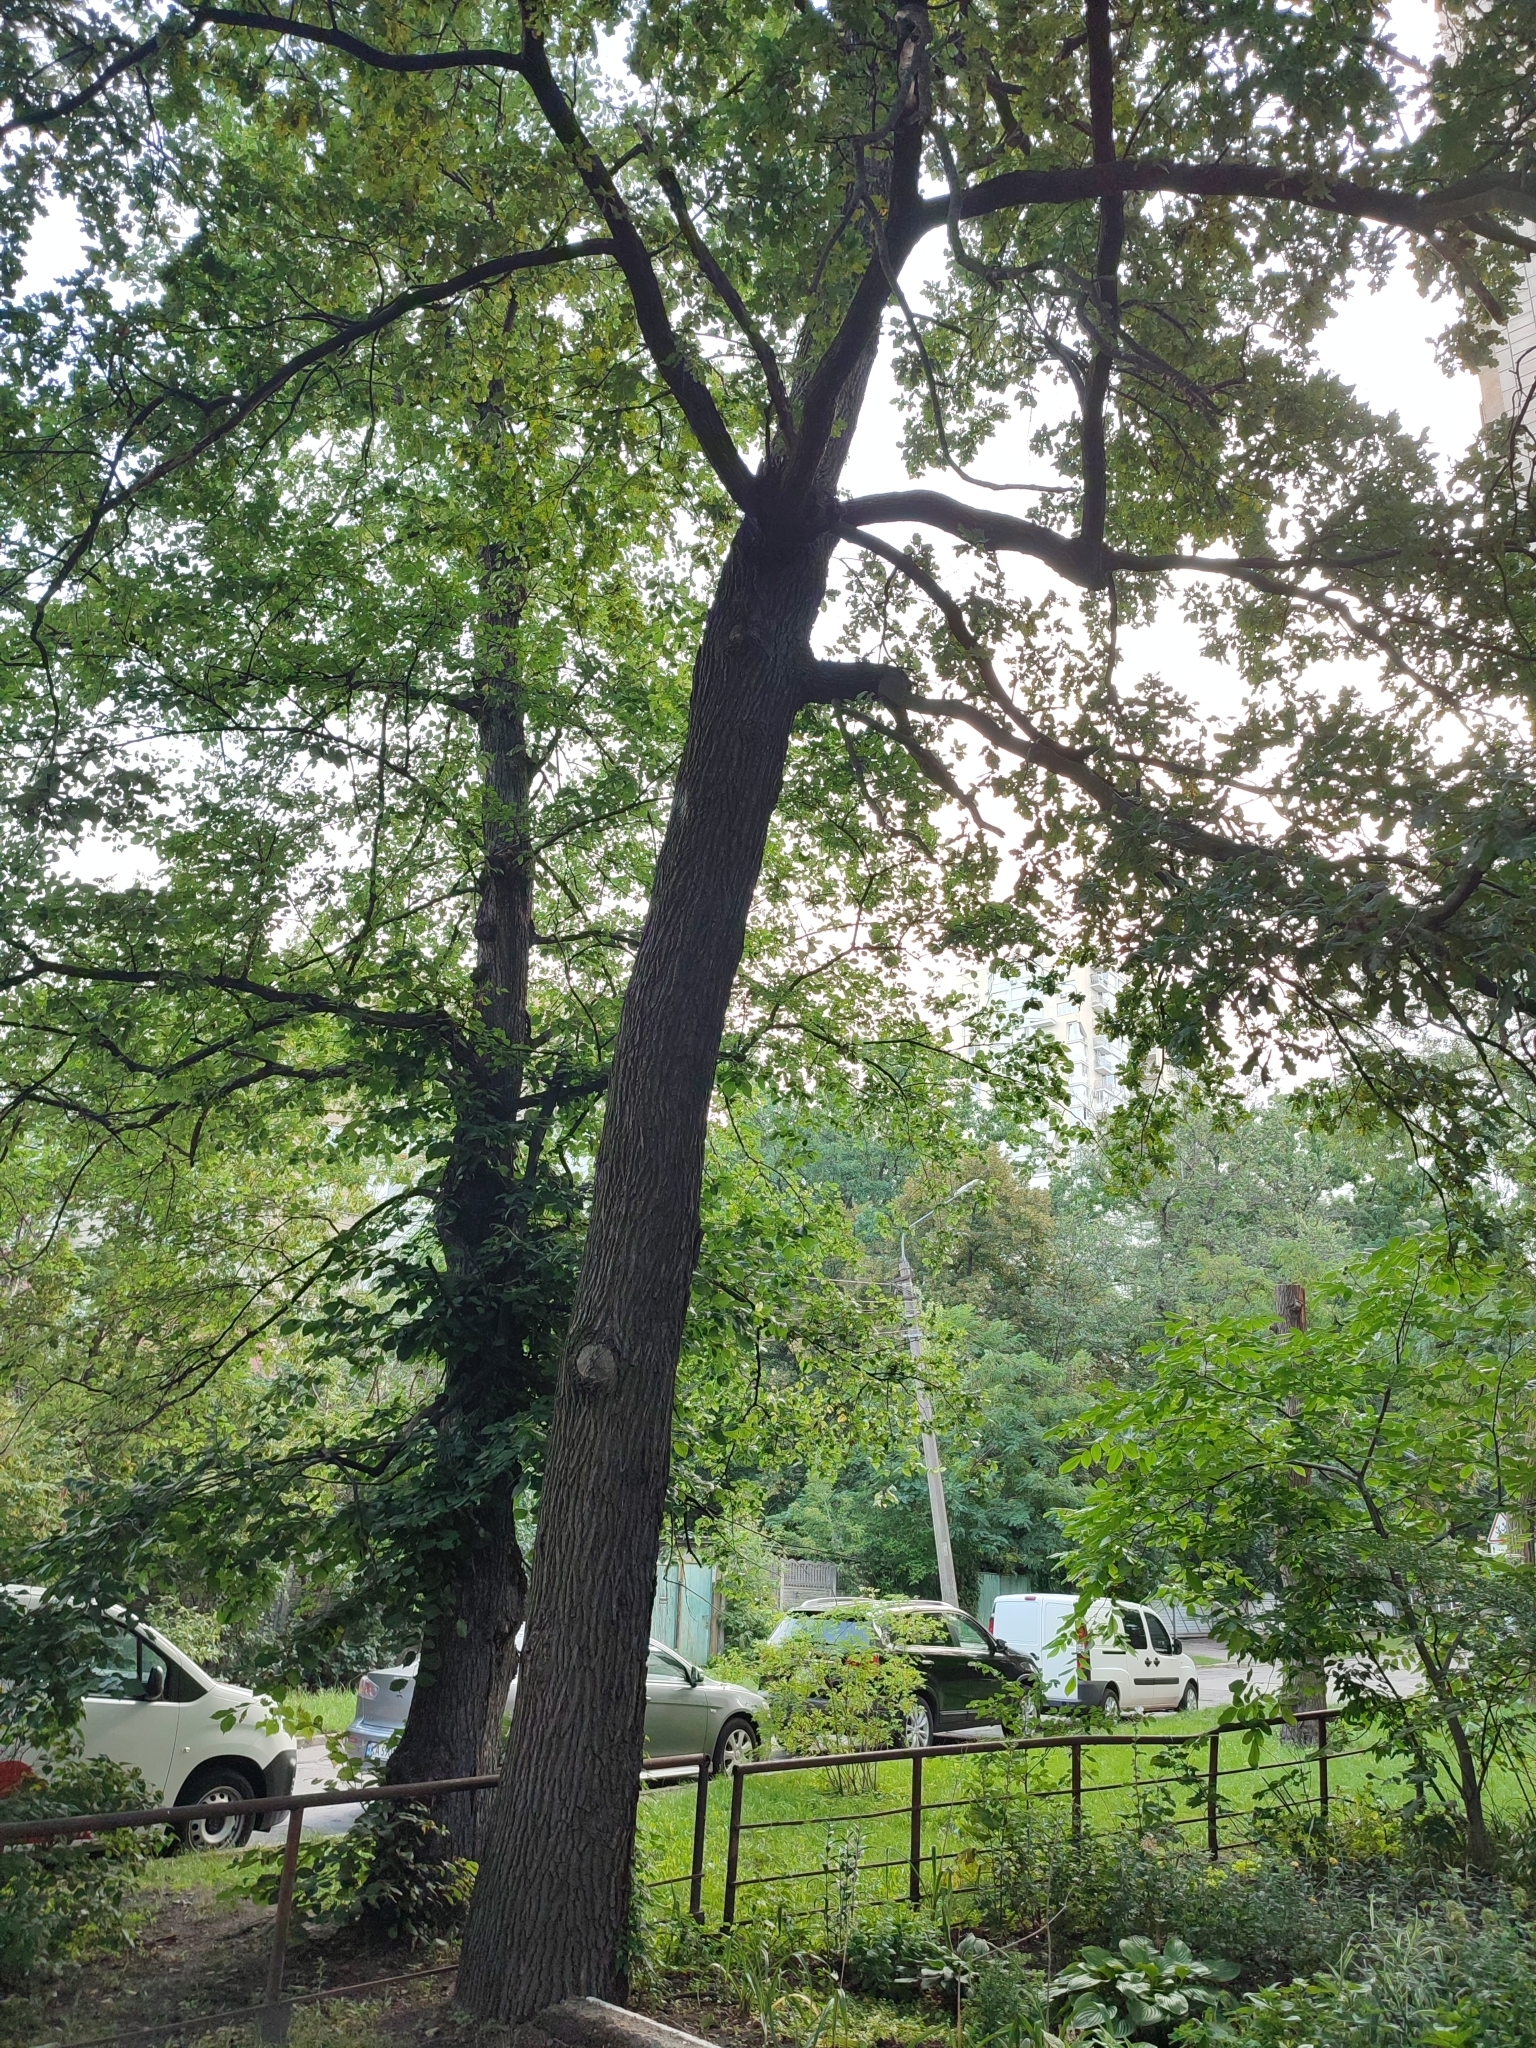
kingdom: Plantae
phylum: Tracheophyta
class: Magnoliopsida
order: Fagales
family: Fagaceae
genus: Quercus
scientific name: Quercus robur
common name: Pedunculate oak
